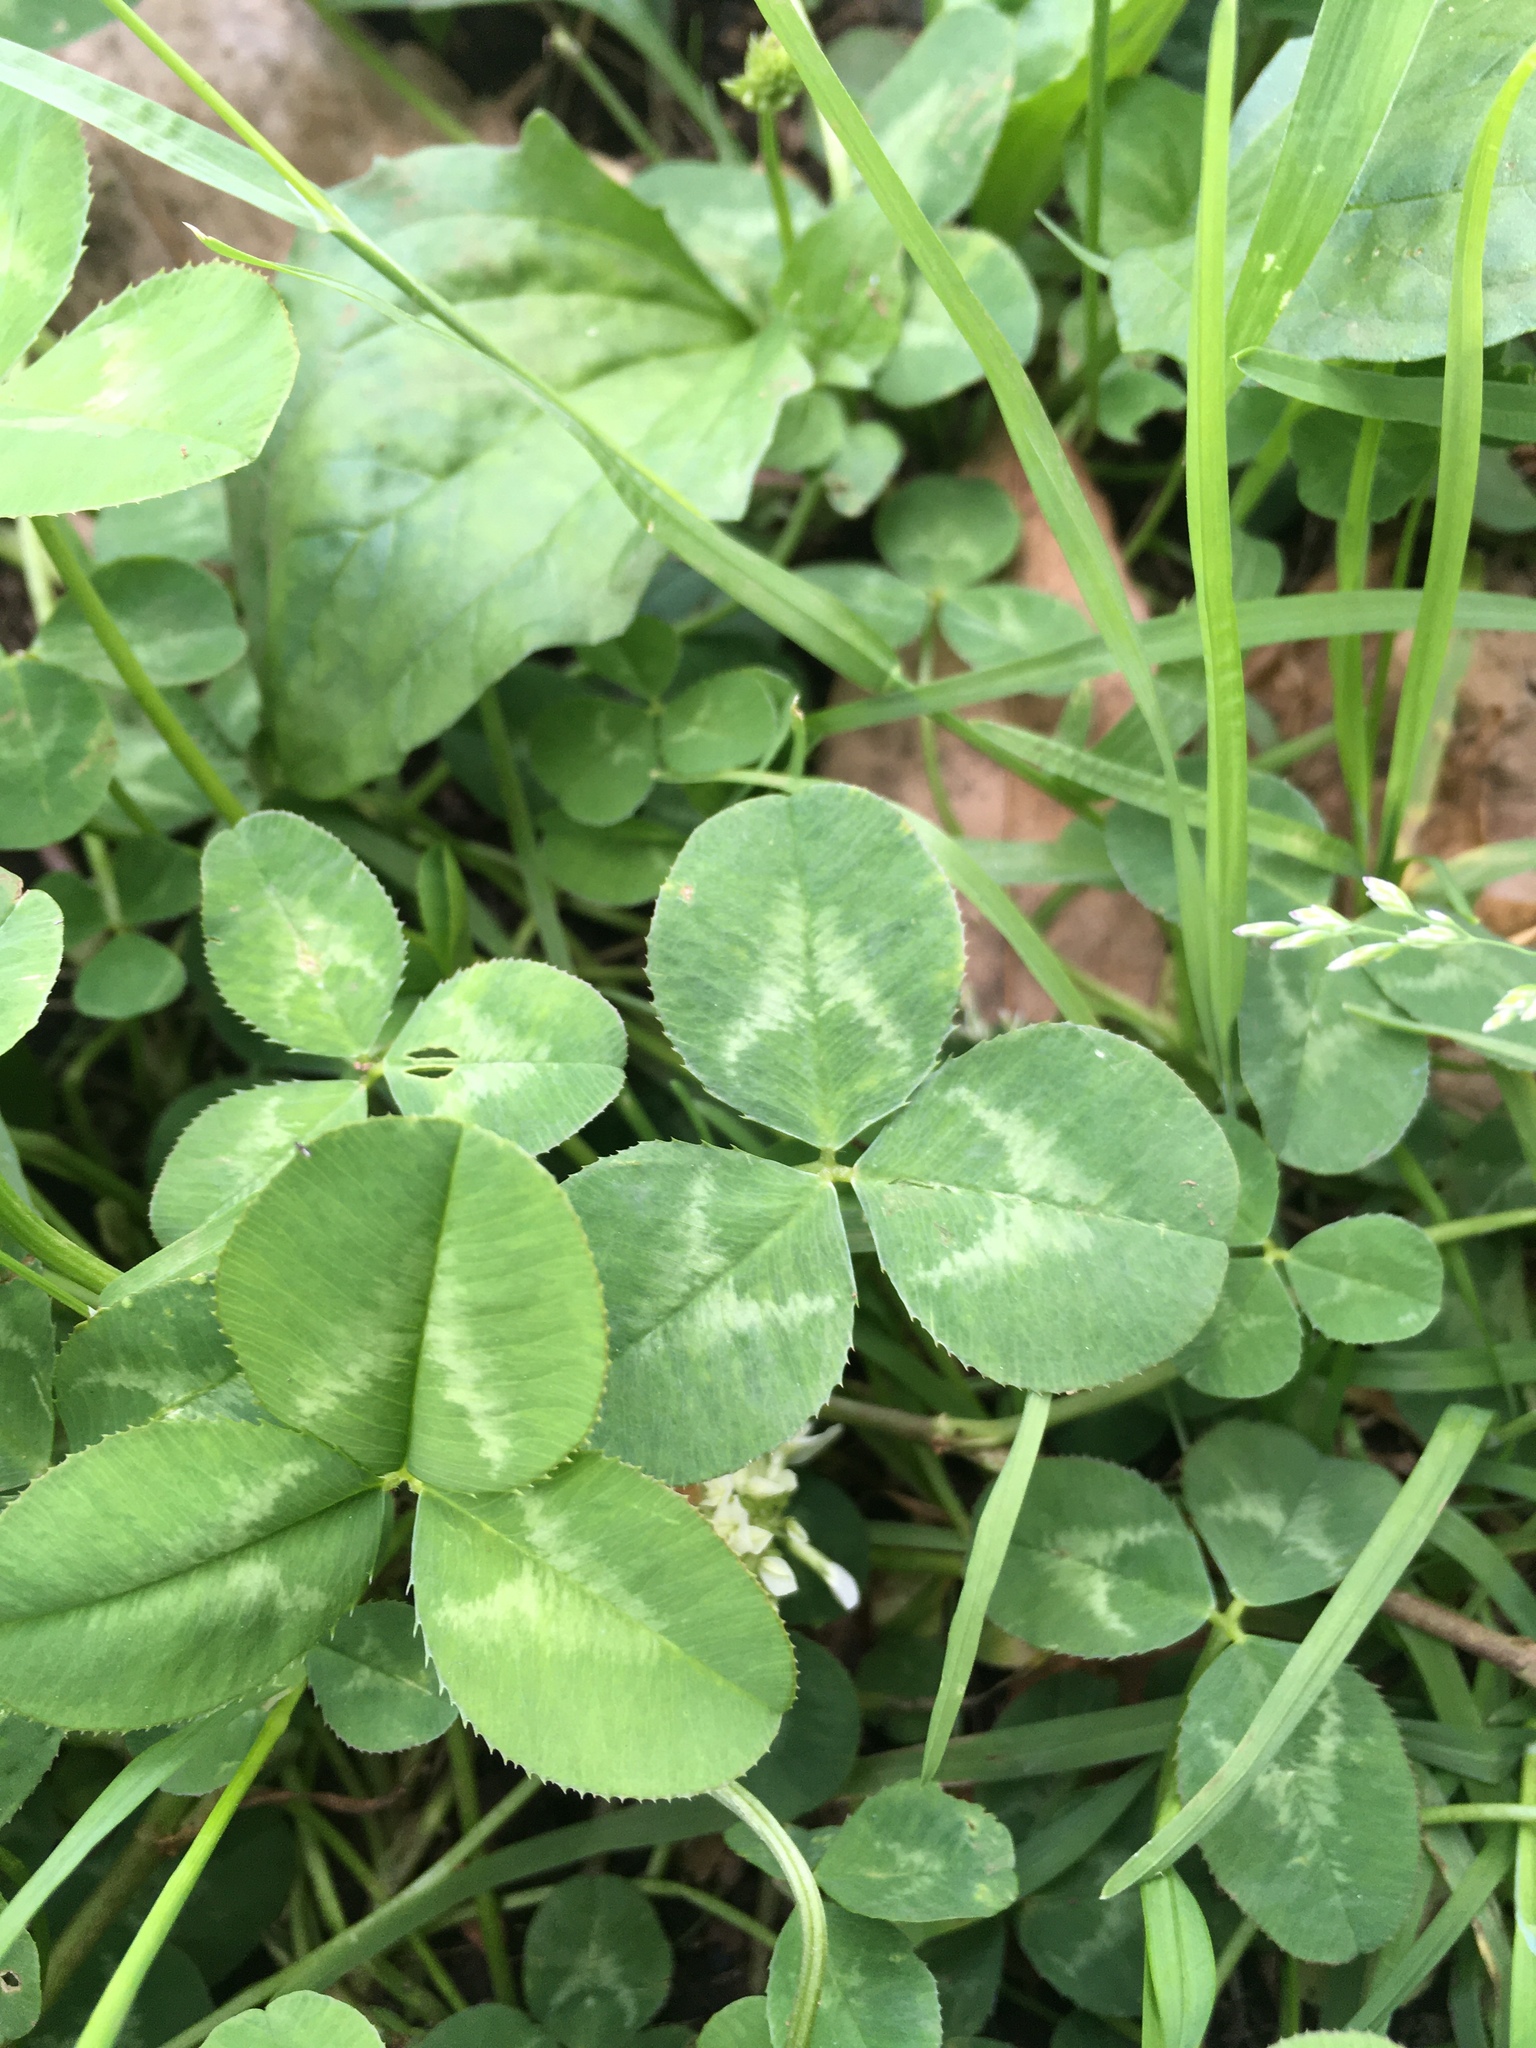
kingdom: Plantae
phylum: Tracheophyta
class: Magnoliopsida
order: Fabales
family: Fabaceae
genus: Trifolium
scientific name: Trifolium repens
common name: White clover
